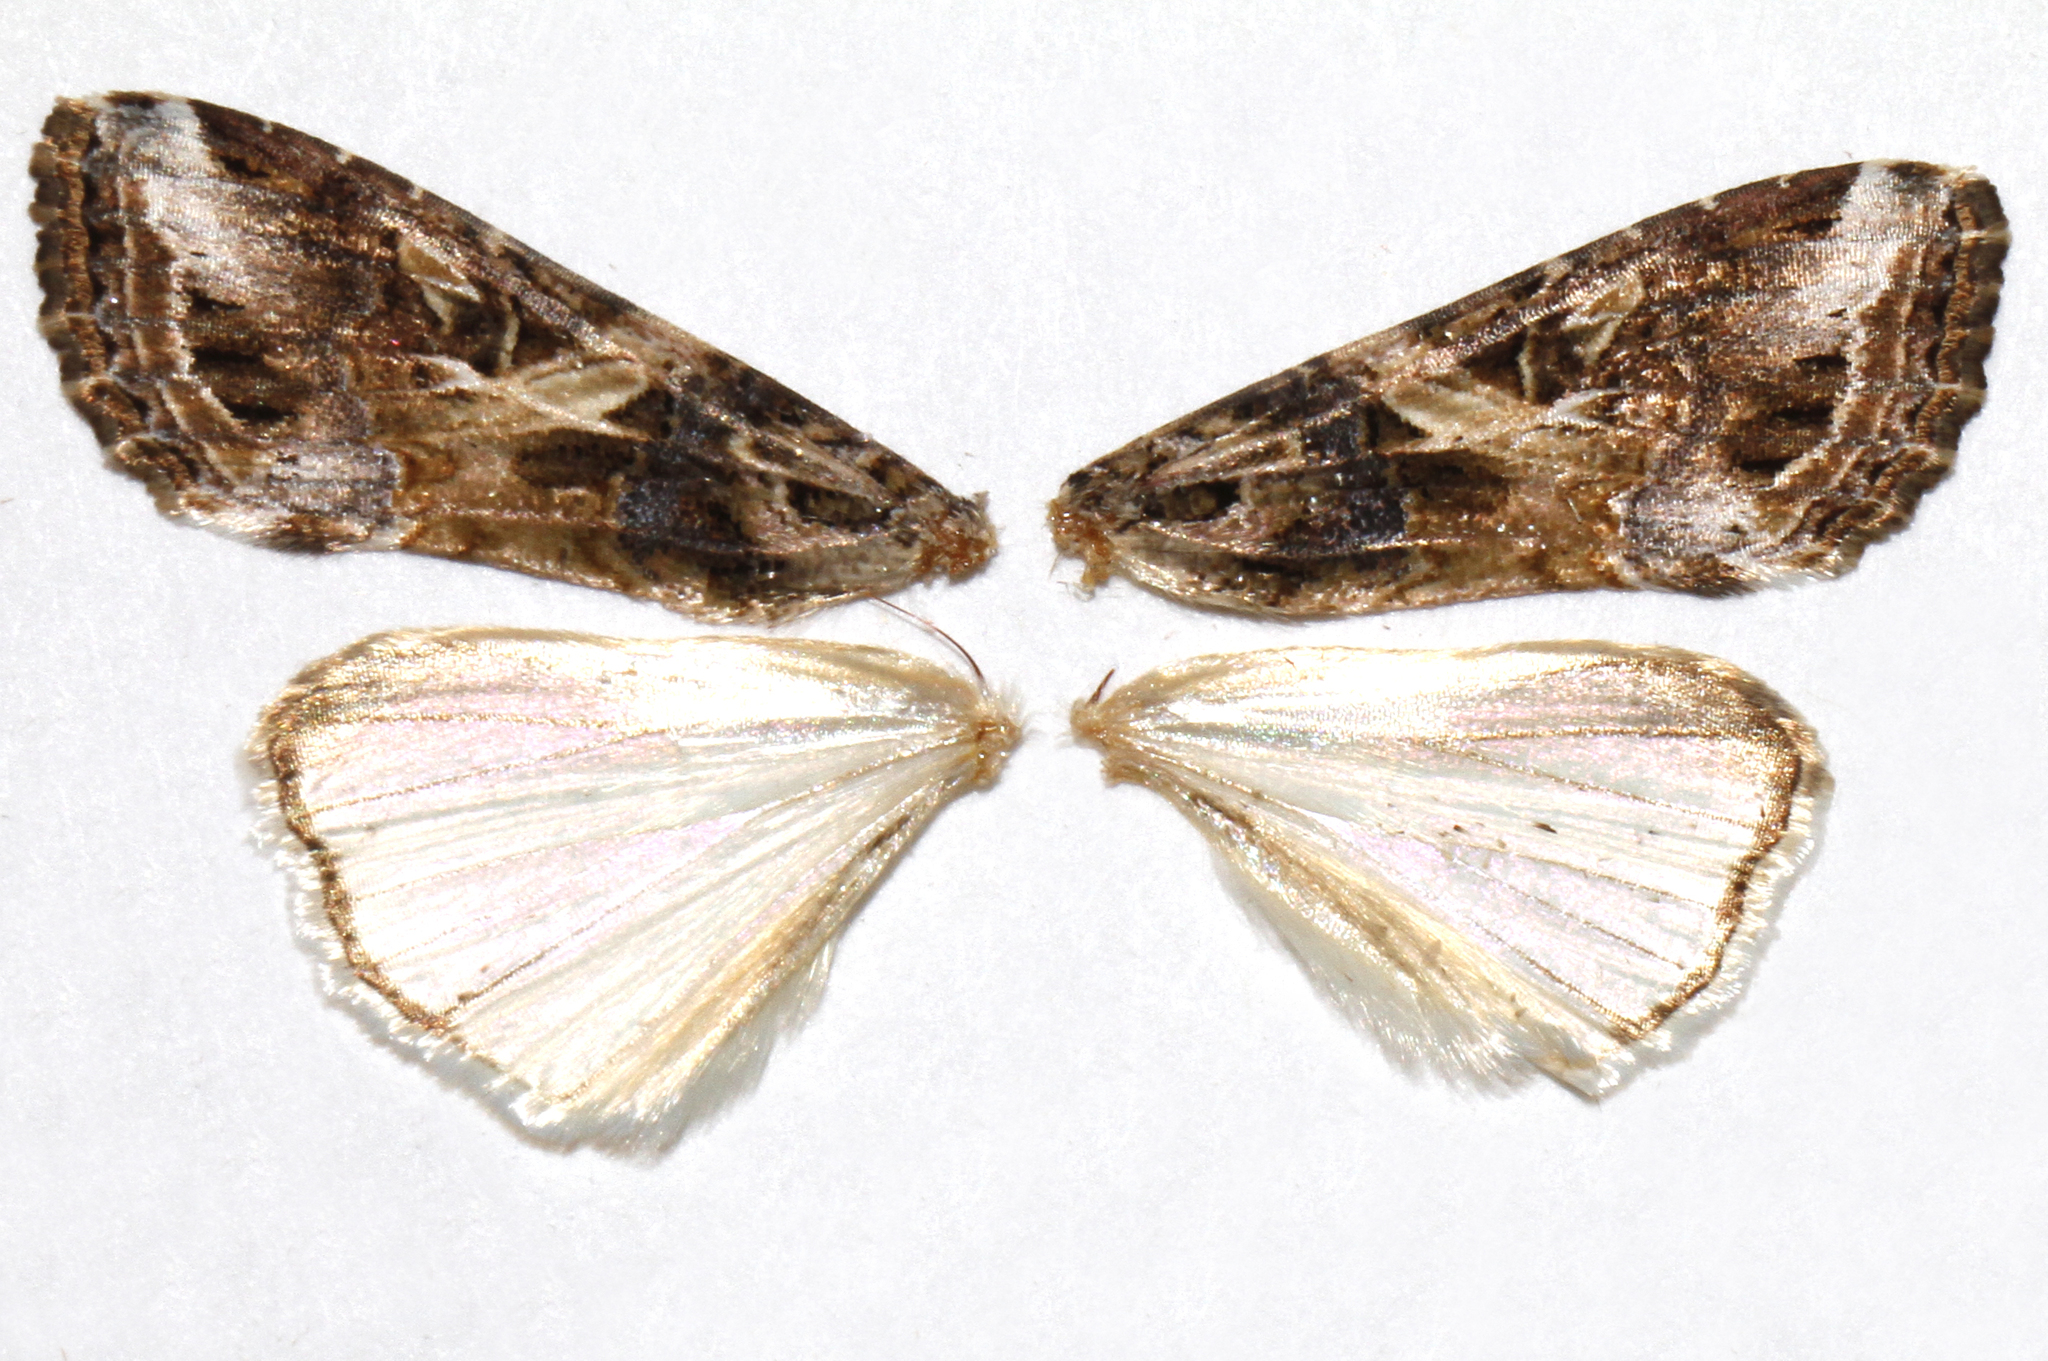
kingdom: Animalia
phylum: Arthropoda
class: Insecta
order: Lepidoptera
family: Noctuidae
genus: Spodoptera
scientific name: Spodoptera ornithogalli
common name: Yellow-striped armyworm
